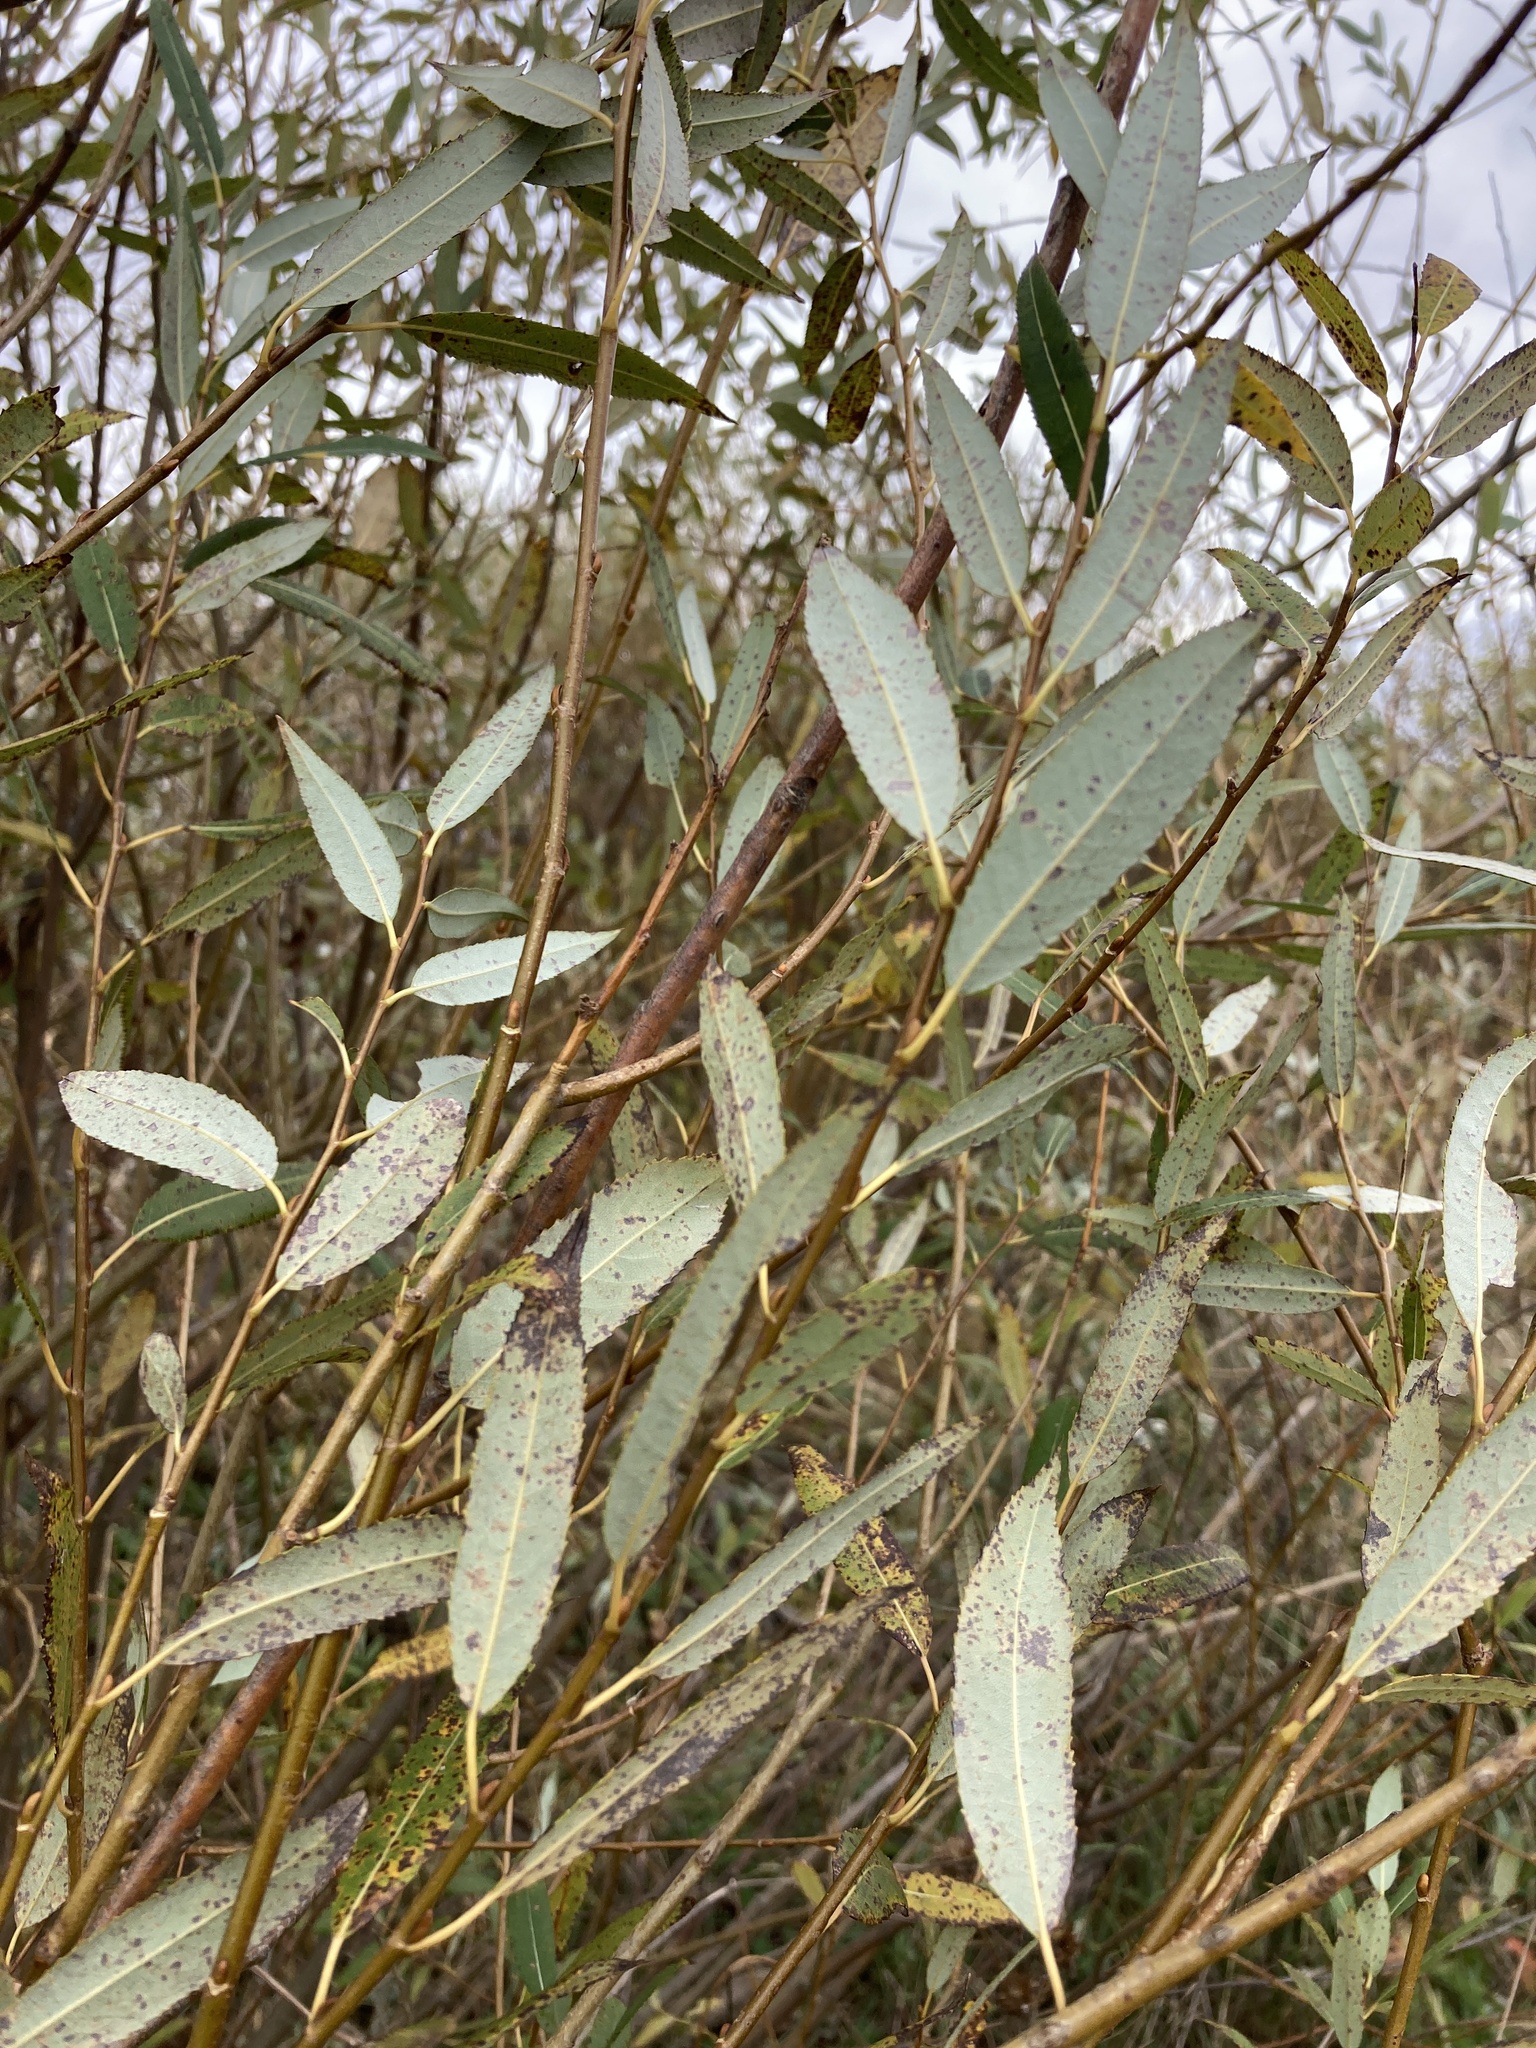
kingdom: Plantae
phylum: Tracheophyta
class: Magnoliopsida
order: Malpighiales
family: Salicaceae
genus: Salix
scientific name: Salix triandra
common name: Almond willow
